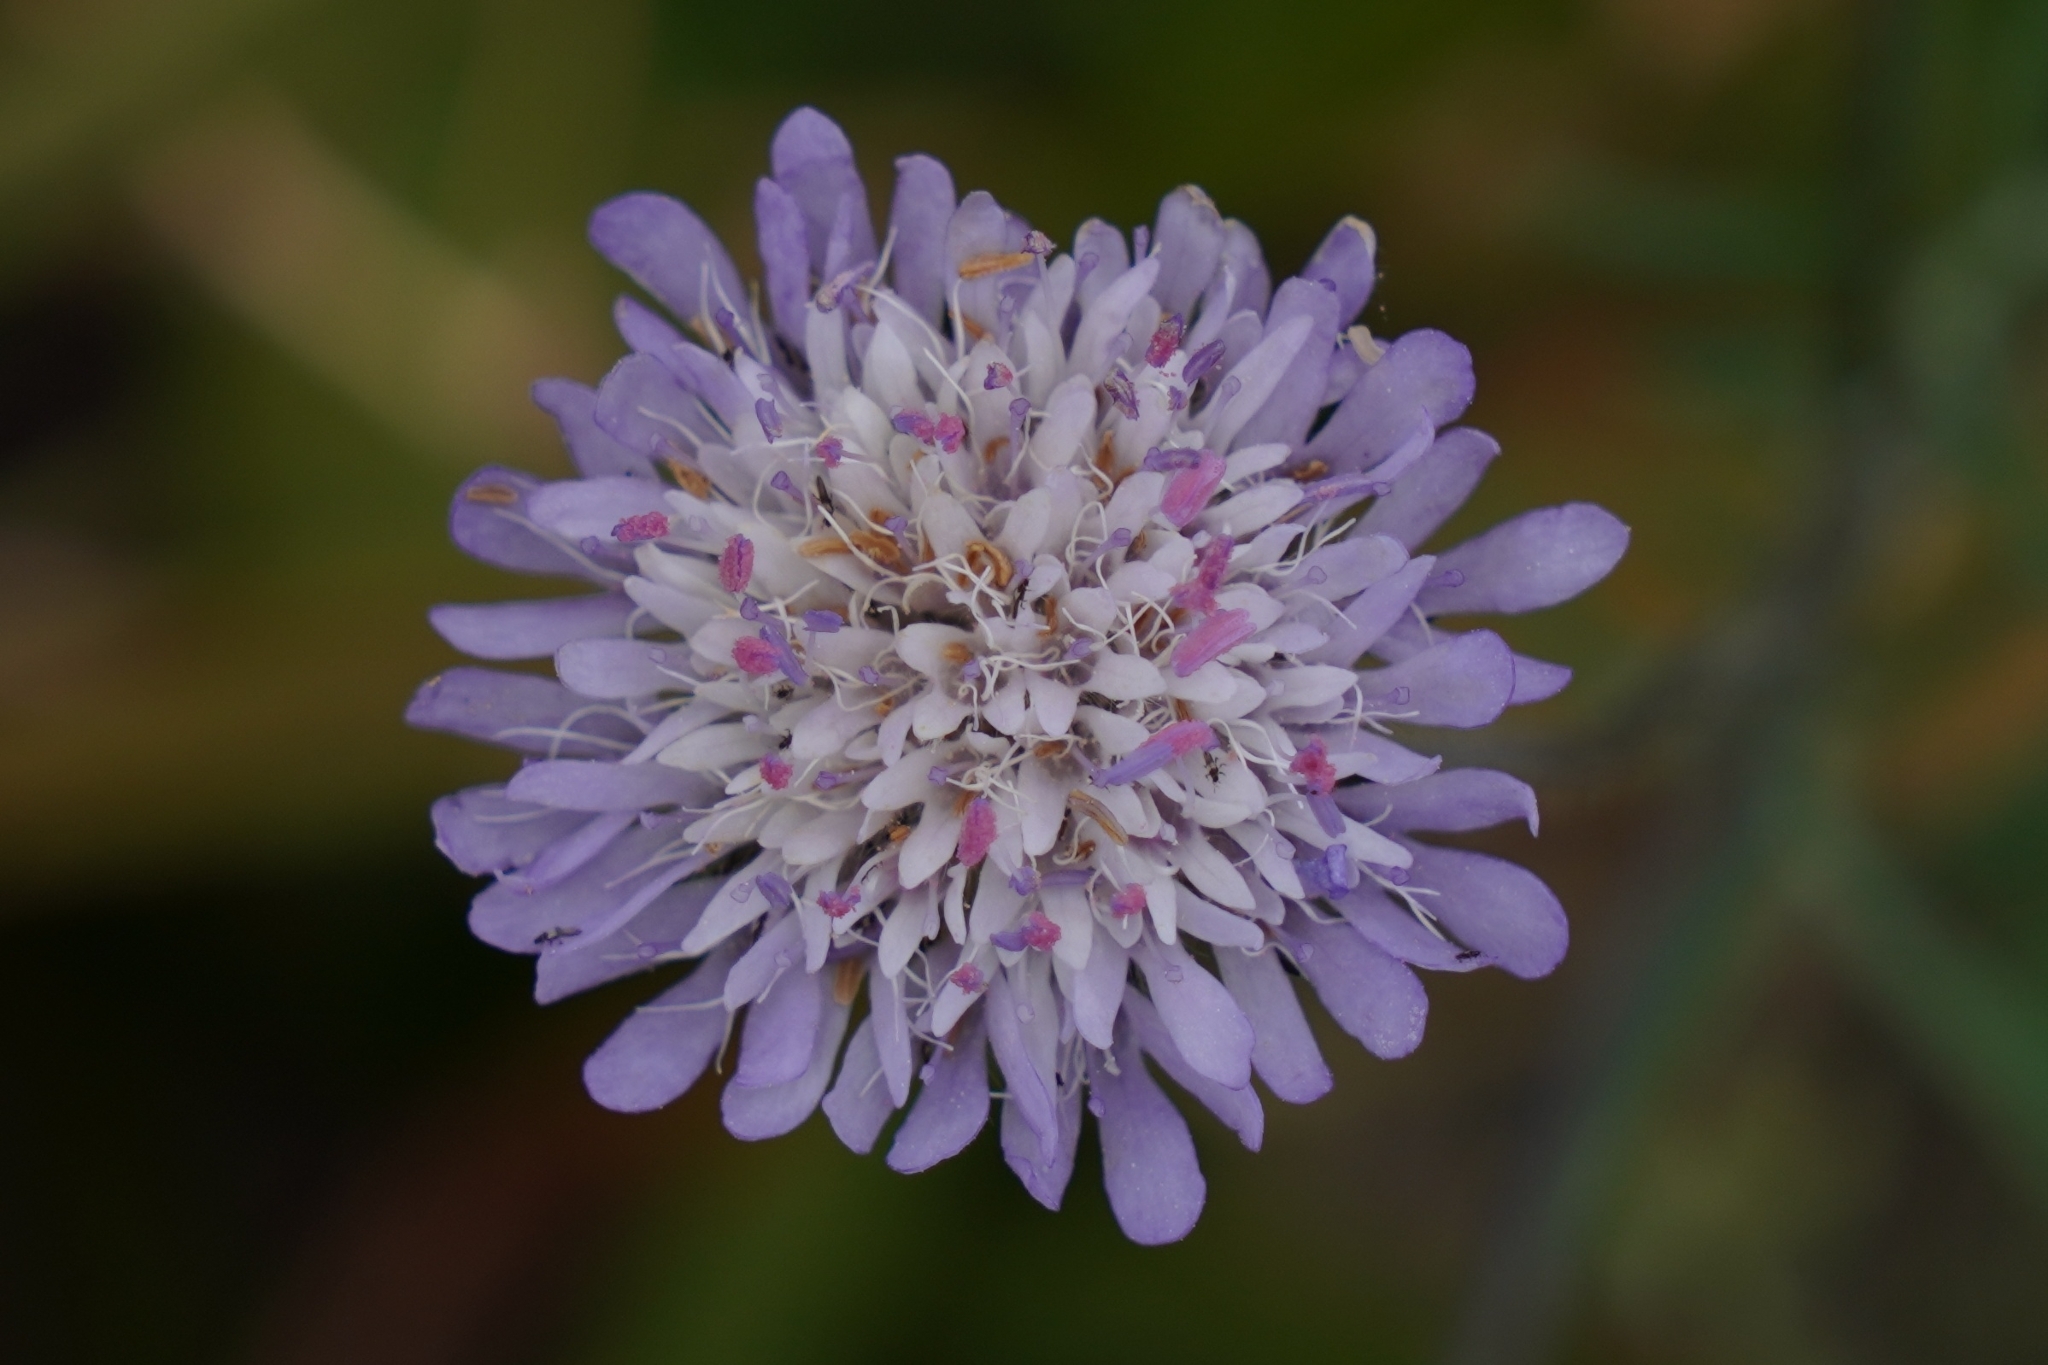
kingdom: Plantae
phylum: Tracheophyta
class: Magnoliopsida
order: Dipsacales
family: Caprifoliaceae
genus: Knautia
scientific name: Knautia integrifolia
